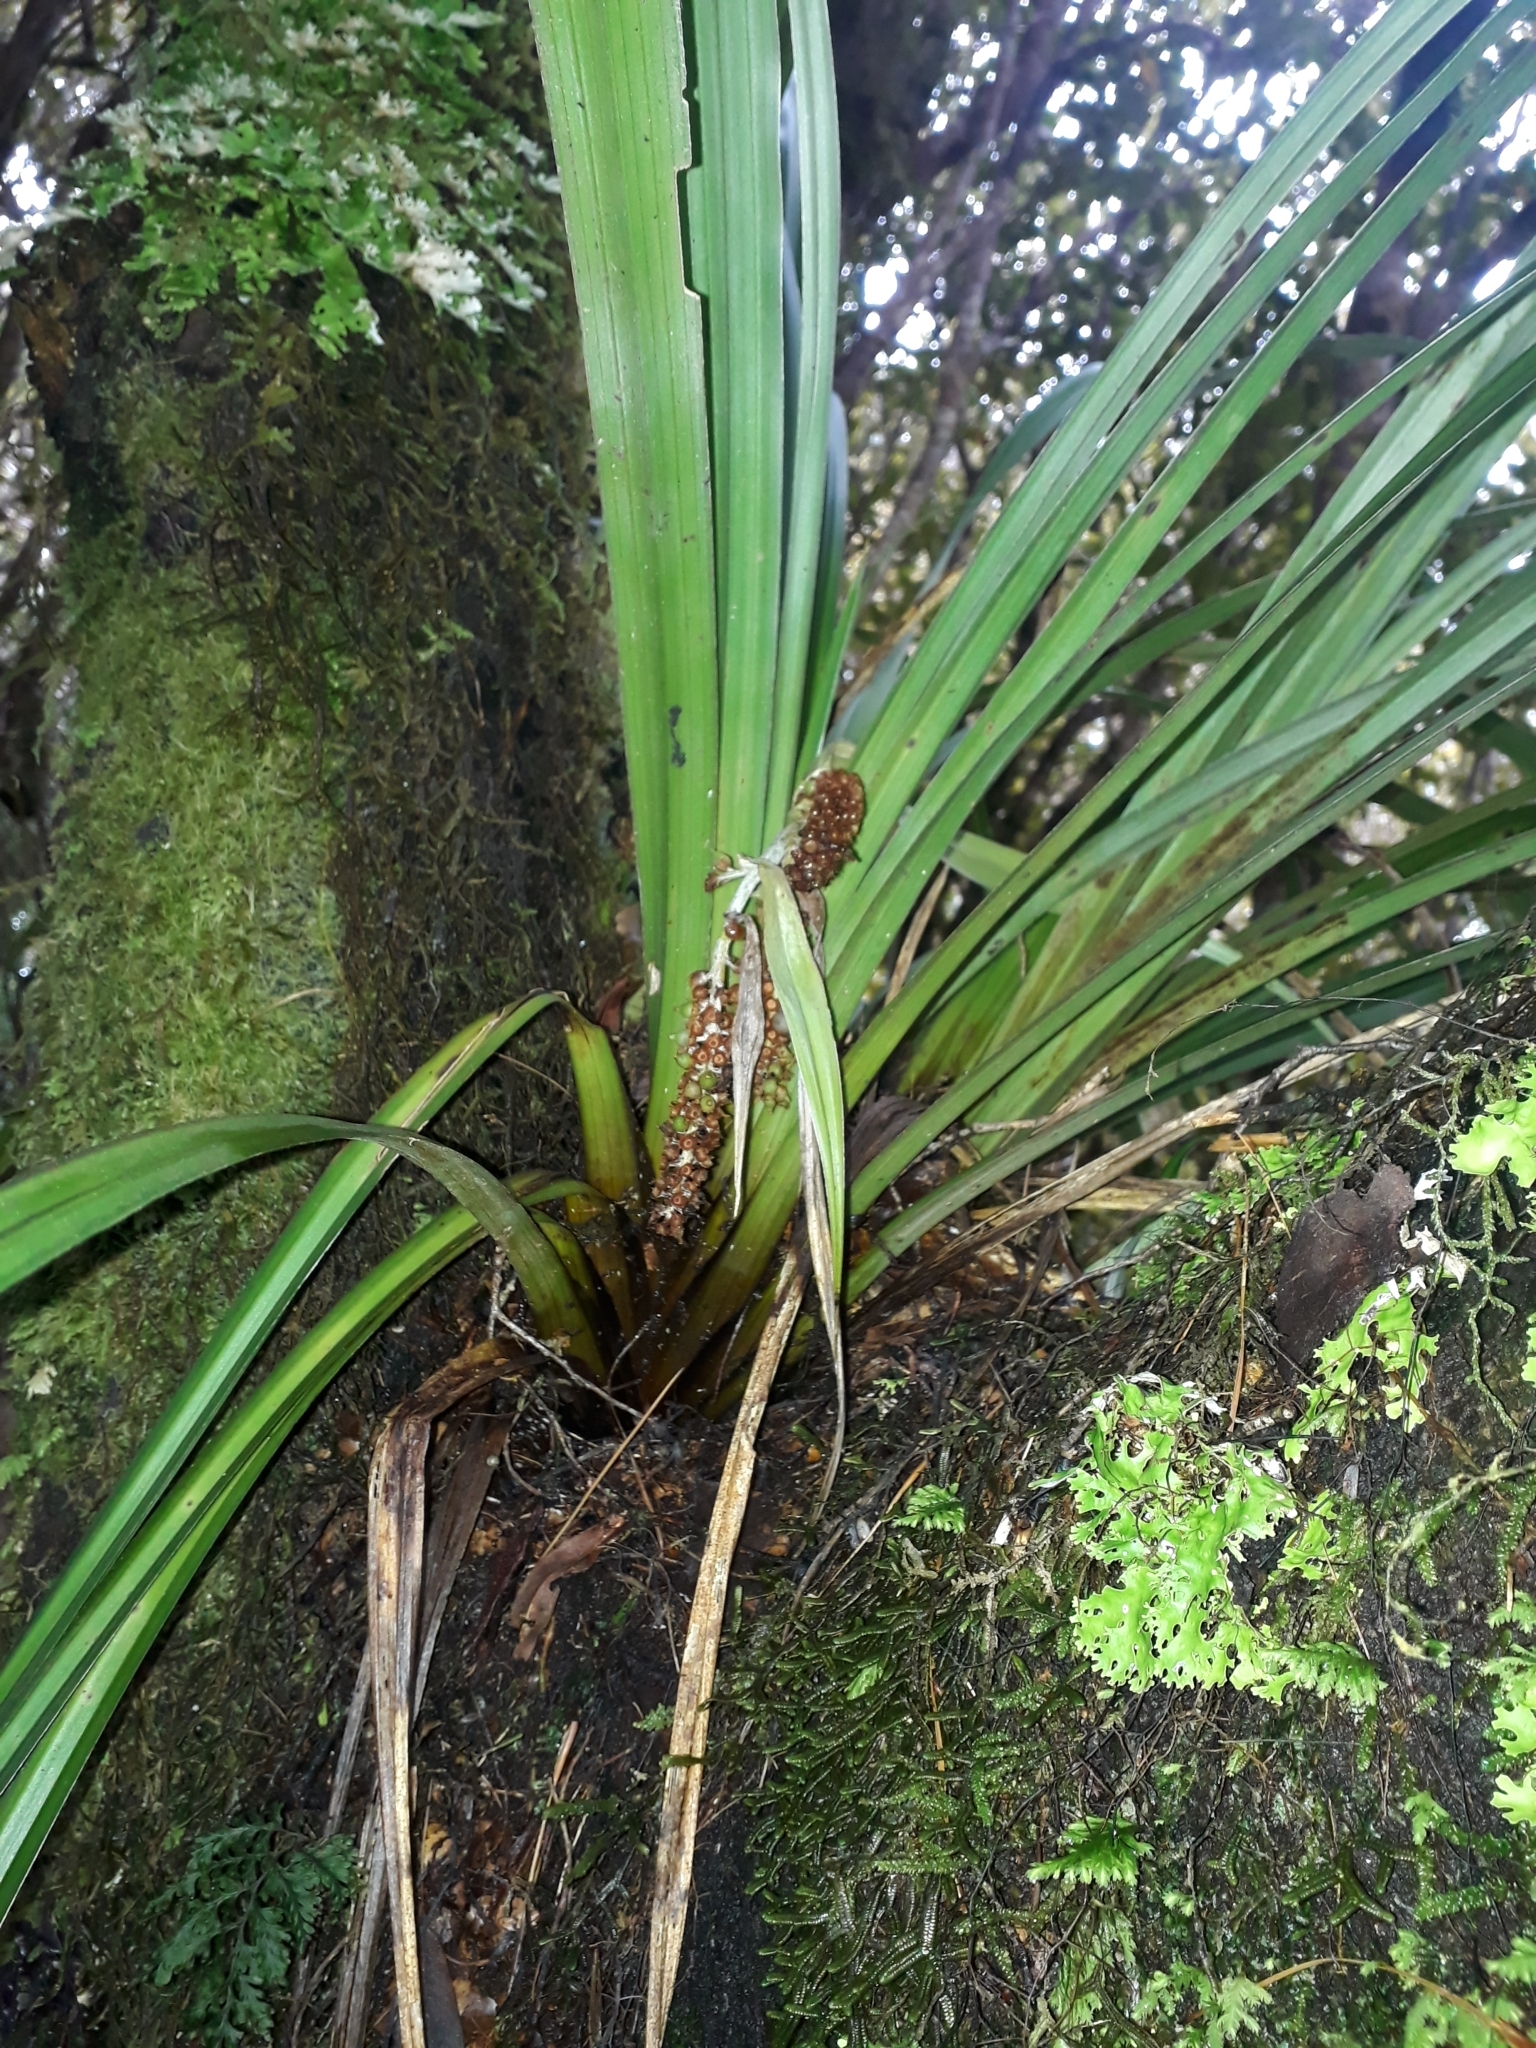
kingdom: Plantae
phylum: Tracheophyta
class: Liliopsida
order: Asparagales
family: Asteliaceae
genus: Astelia
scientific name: Astelia microsperma
